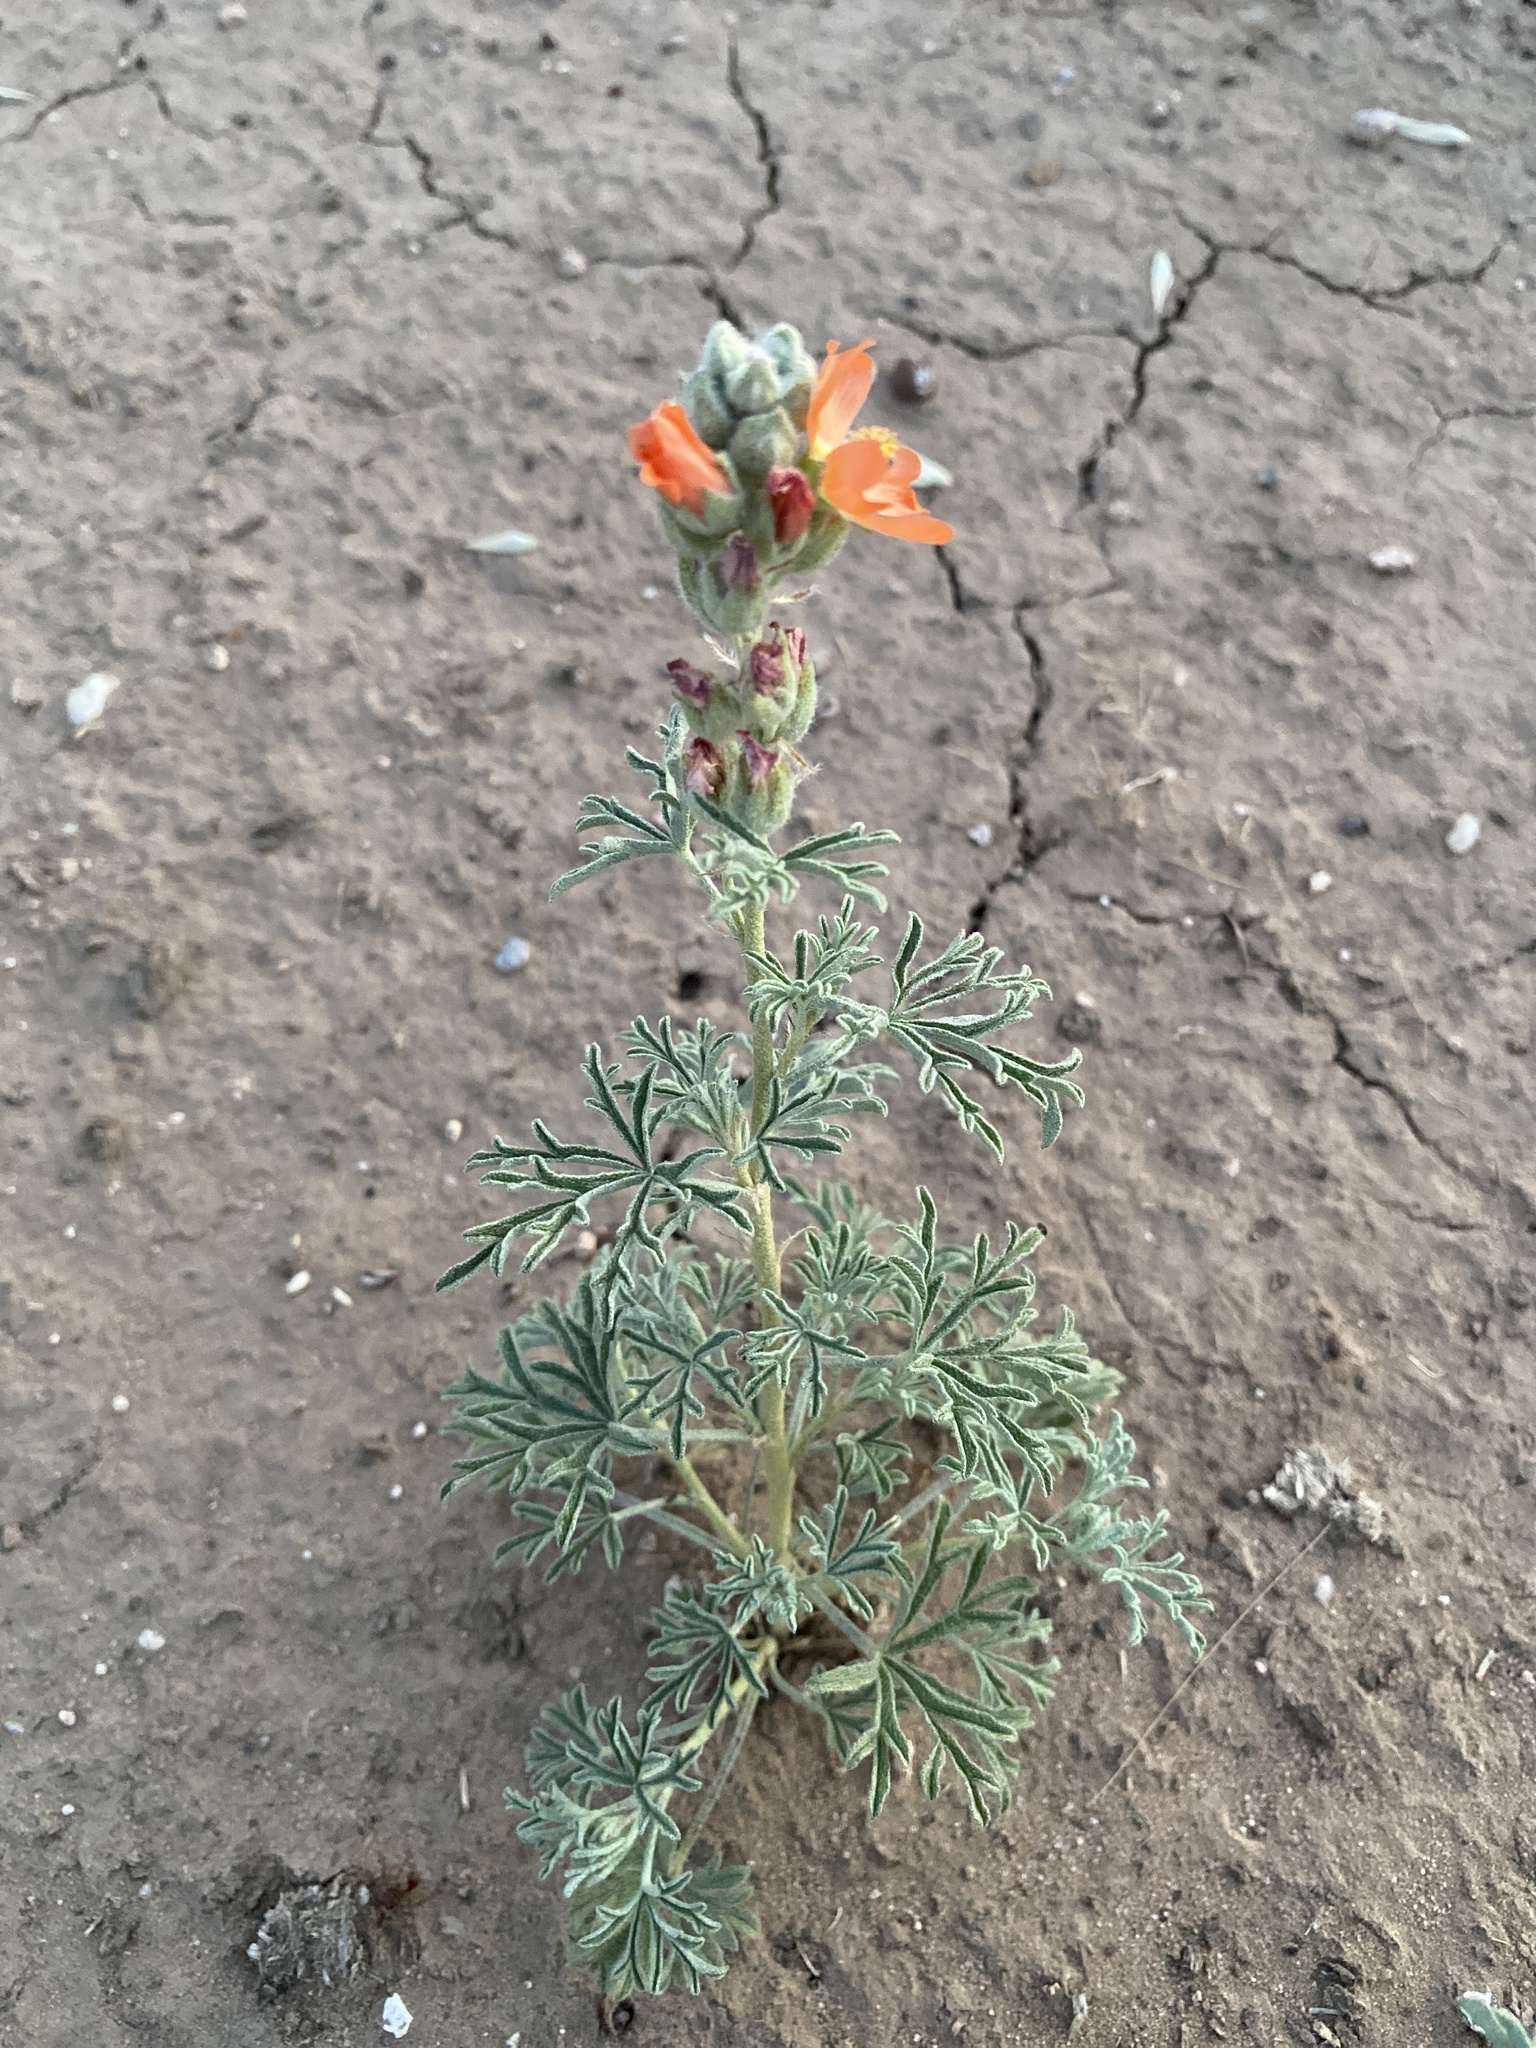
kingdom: Plantae
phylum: Tracheophyta
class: Magnoliopsida
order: Malvales
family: Malvaceae
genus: Sphaeralcea
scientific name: Sphaeralcea coccinea
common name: Moss-rose
